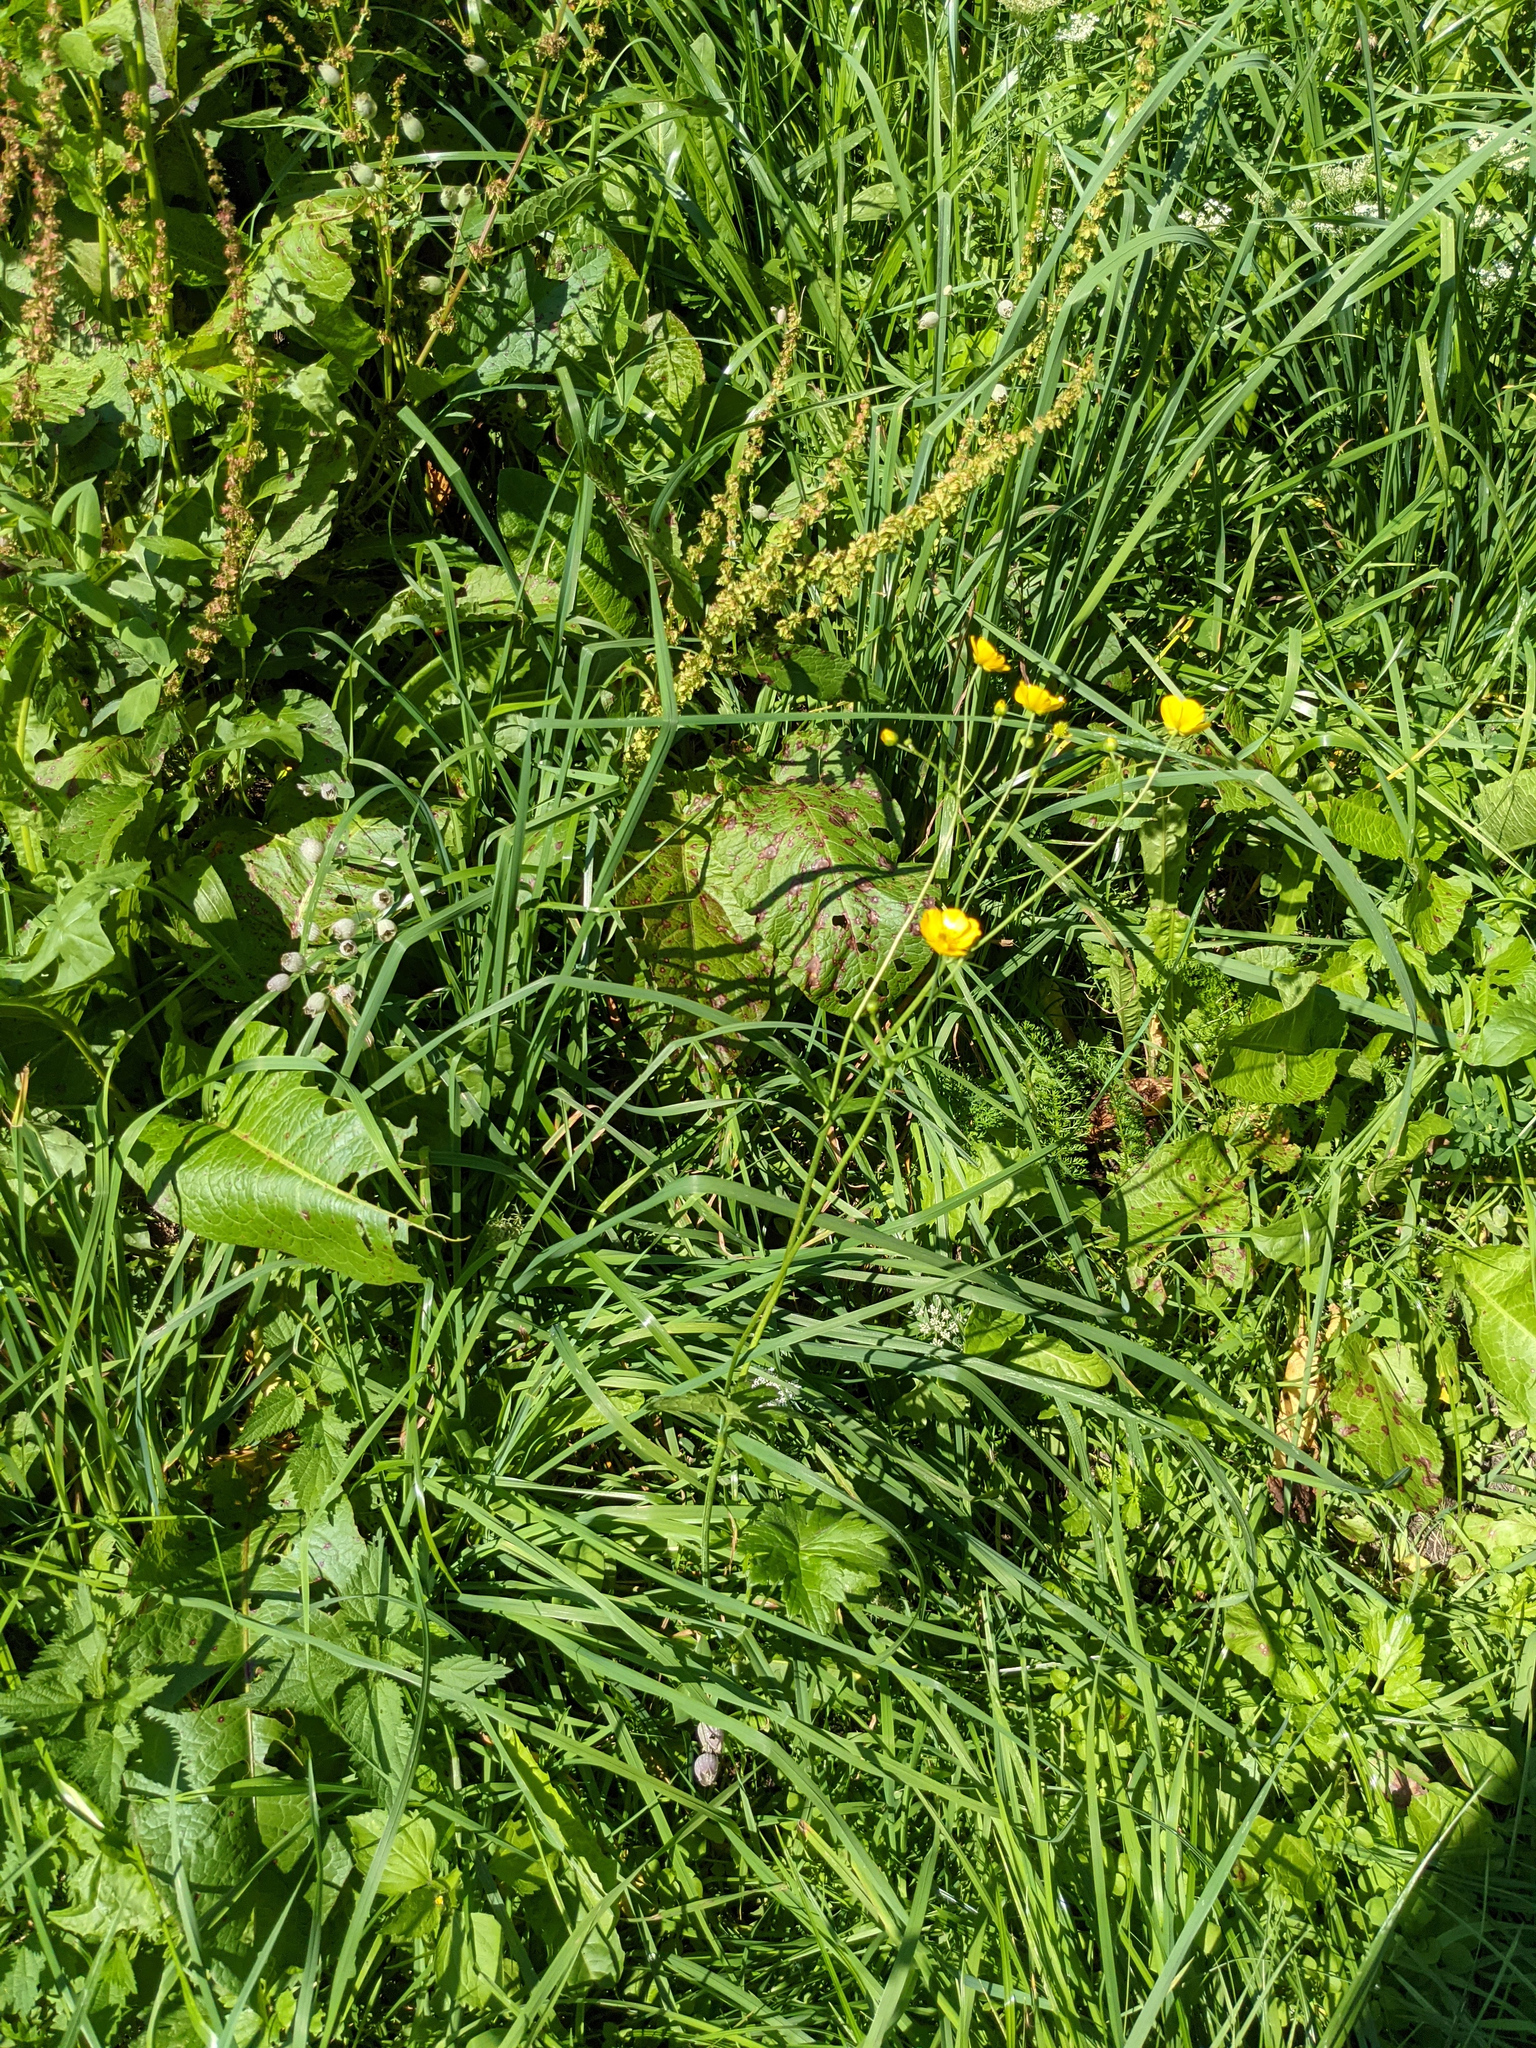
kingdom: Plantae
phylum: Tracheophyta
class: Magnoliopsida
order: Ranunculales
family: Ranunculaceae
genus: Ranunculus
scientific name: Ranunculus acris
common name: Meadow buttercup
